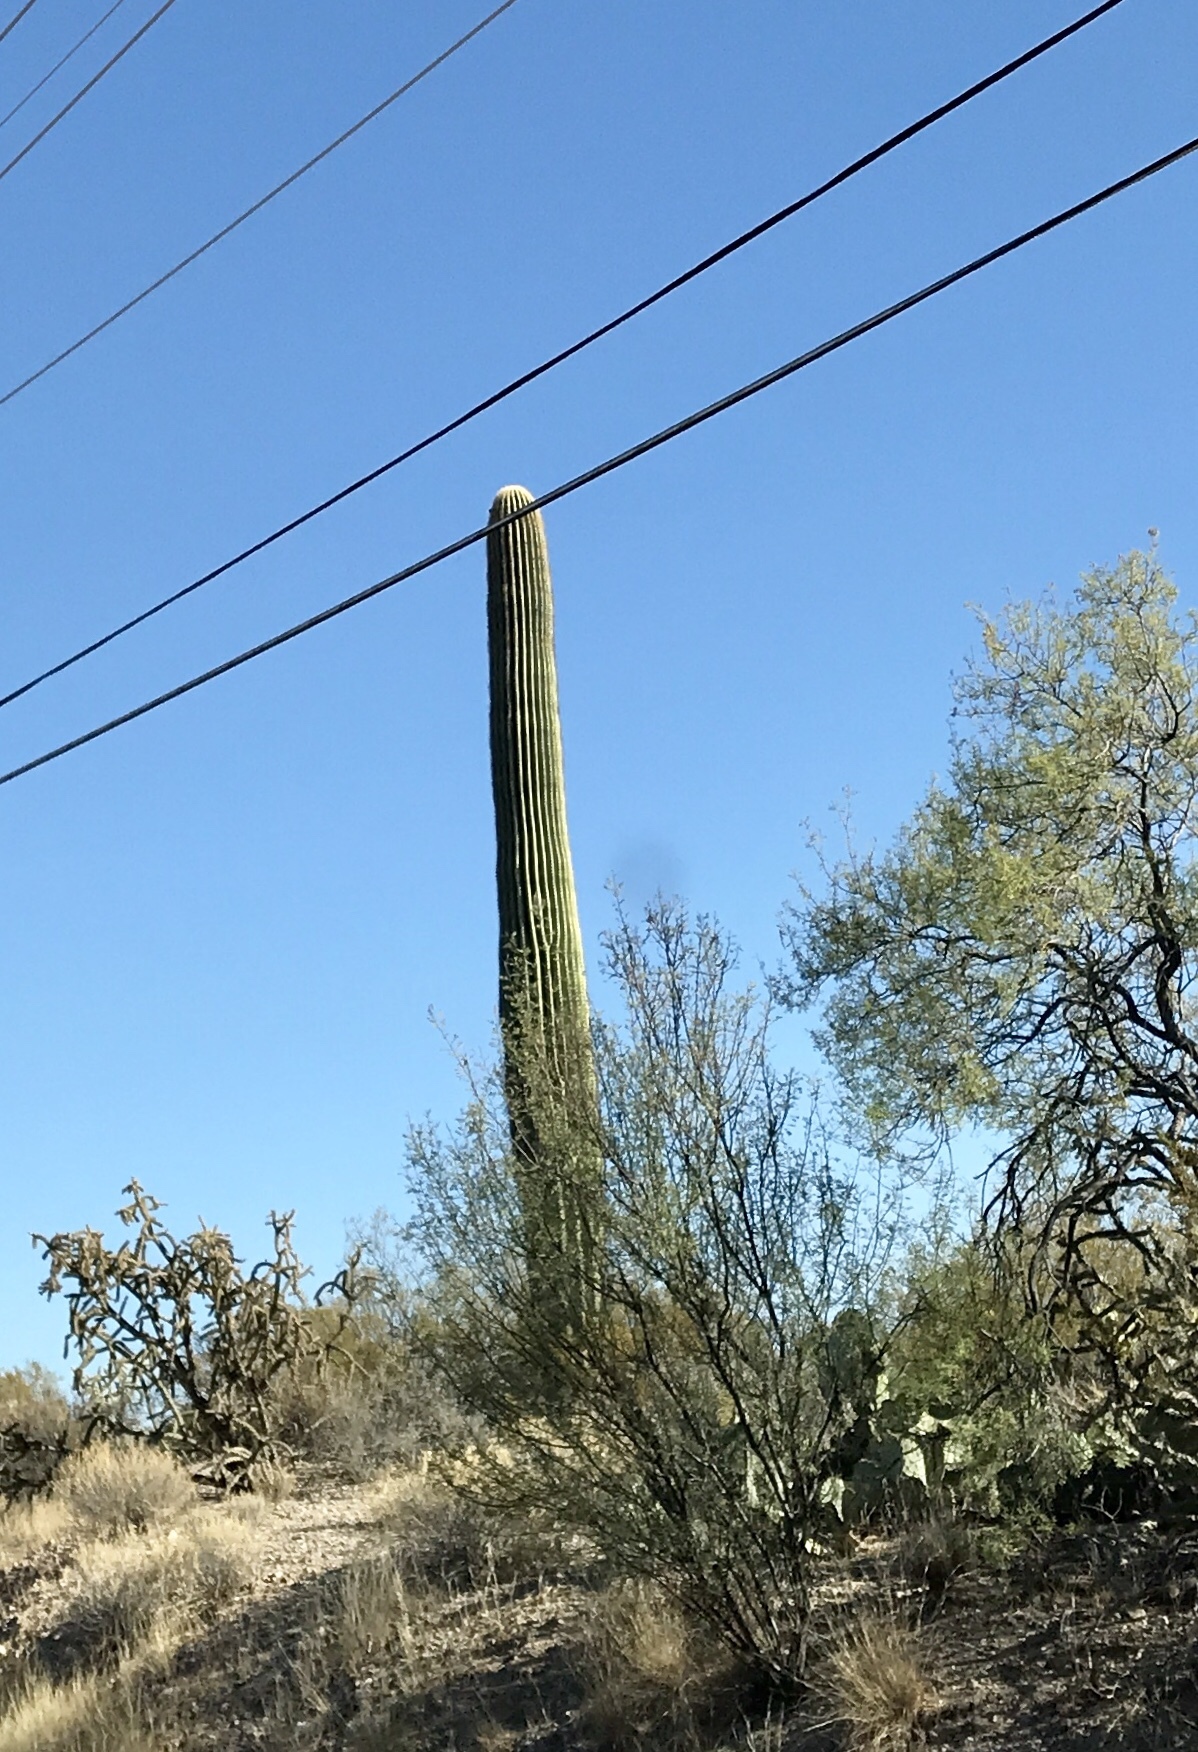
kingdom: Plantae
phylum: Tracheophyta
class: Magnoliopsida
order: Caryophyllales
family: Cactaceae
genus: Carnegiea
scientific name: Carnegiea gigantea
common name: Saguaro
